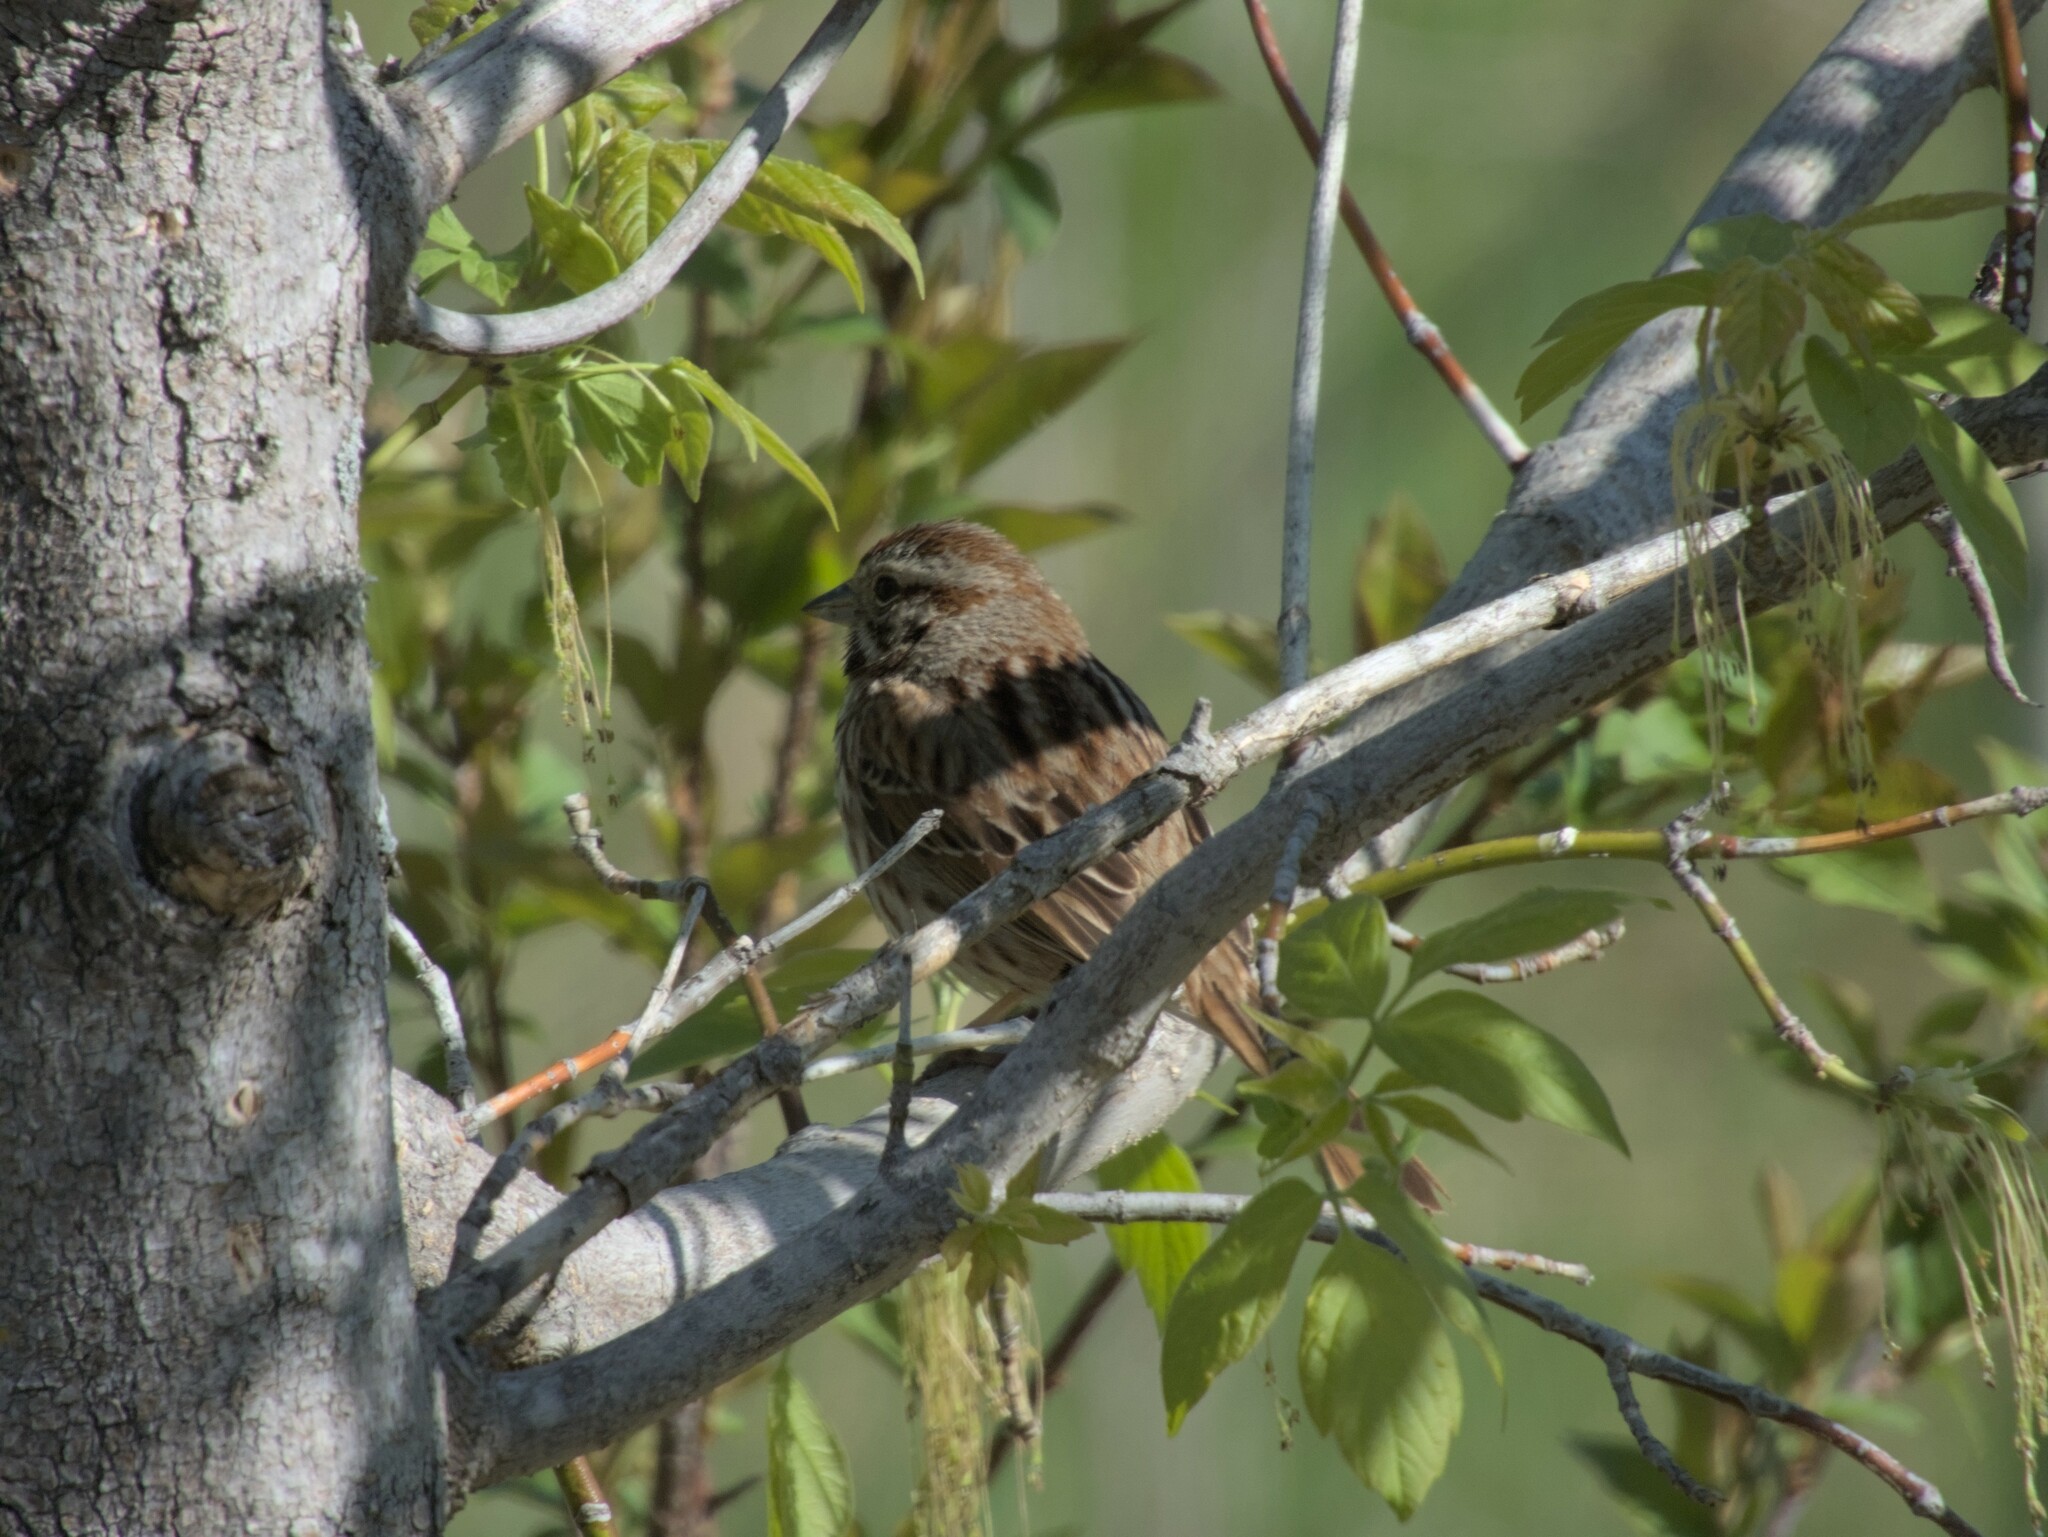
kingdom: Animalia
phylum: Chordata
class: Aves
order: Passeriformes
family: Passerellidae
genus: Melospiza
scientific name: Melospiza melodia
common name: Song sparrow
